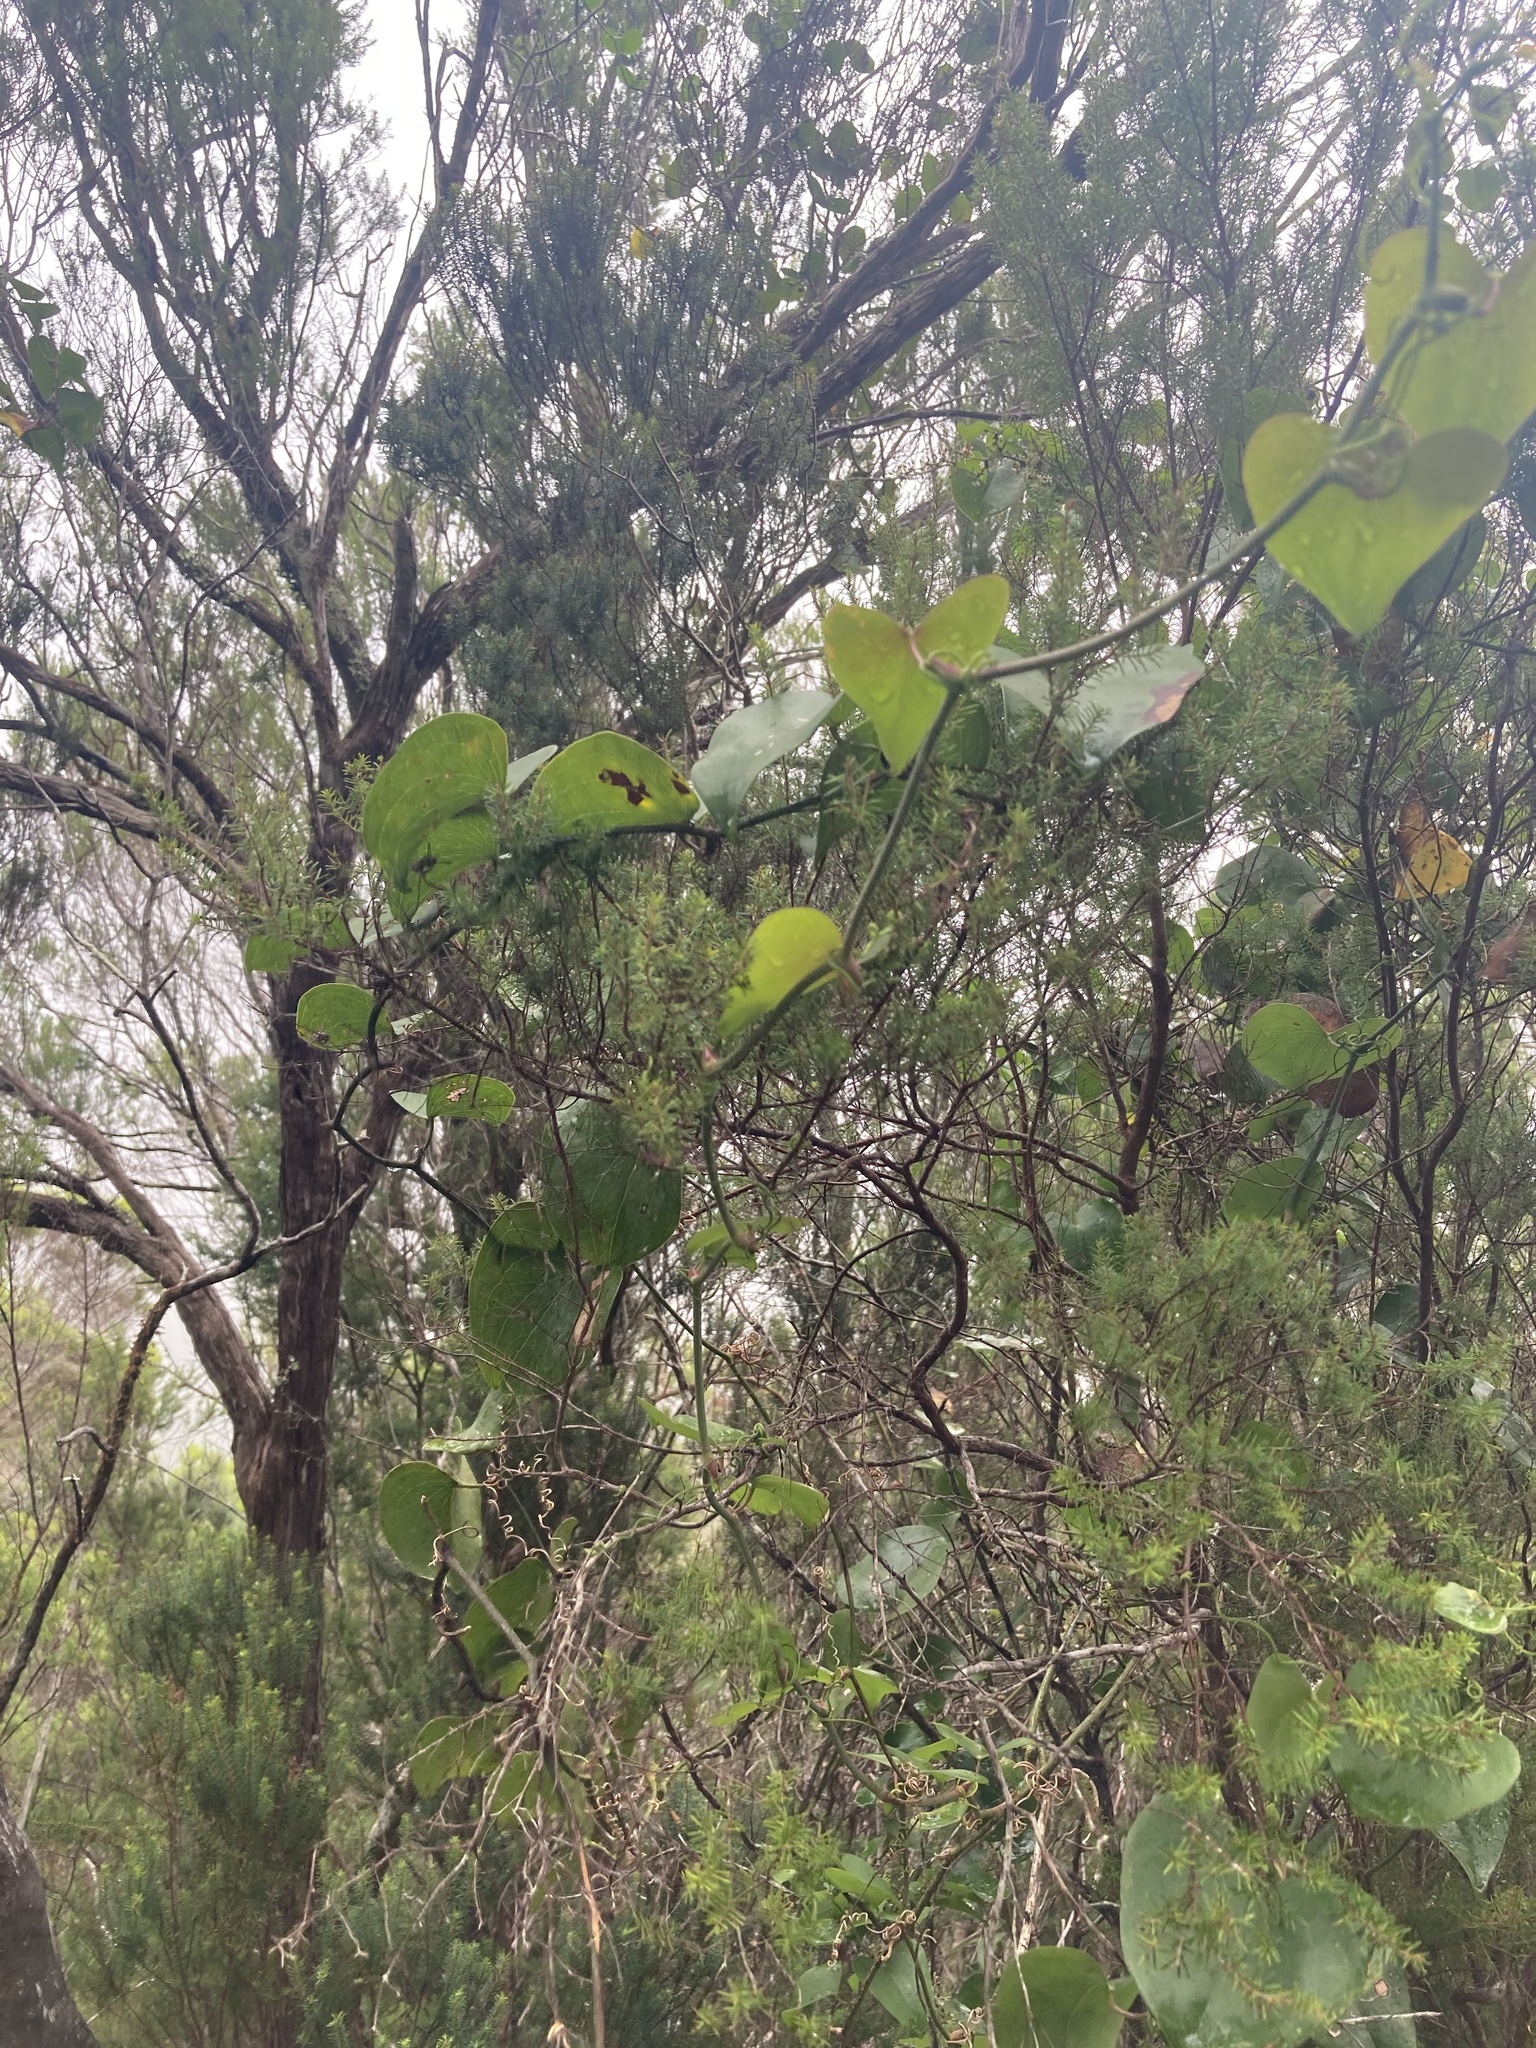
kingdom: Plantae
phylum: Tracheophyta
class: Liliopsida
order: Liliales
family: Smilacaceae
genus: Smilax
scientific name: Smilax aspera
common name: Common smilax
